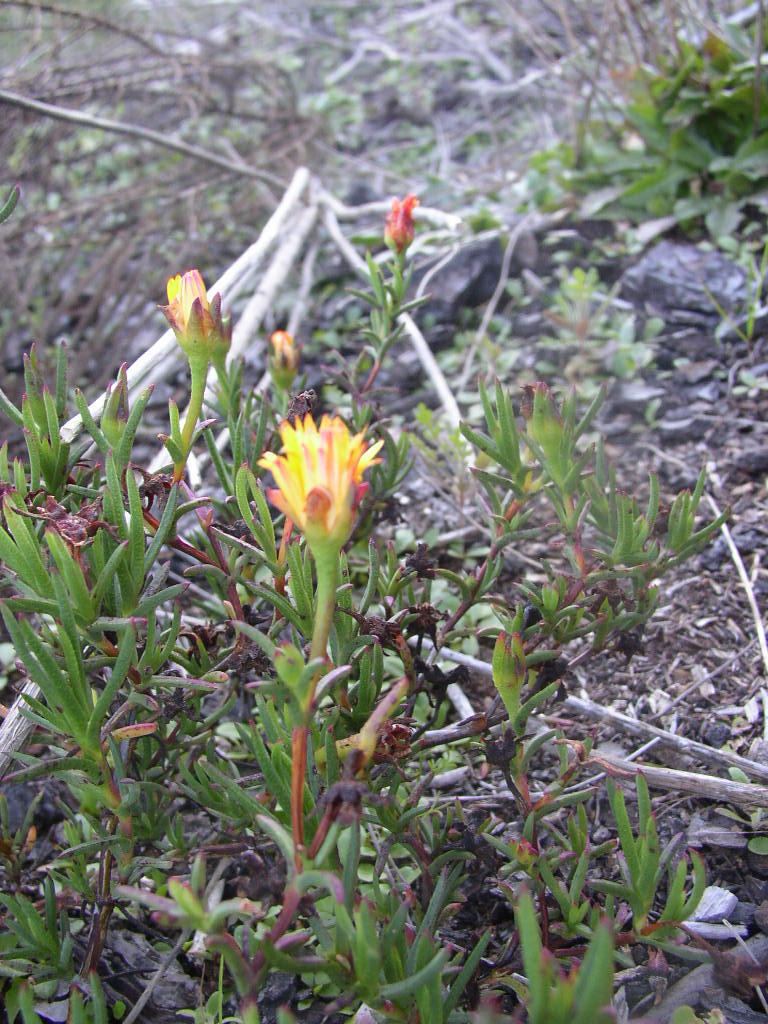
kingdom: Plantae
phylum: Tracheophyta
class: Magnoliopsida
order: Caryophyllales
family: Aizoaceae
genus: Lampranthus
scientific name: Lampranthus bicolor
